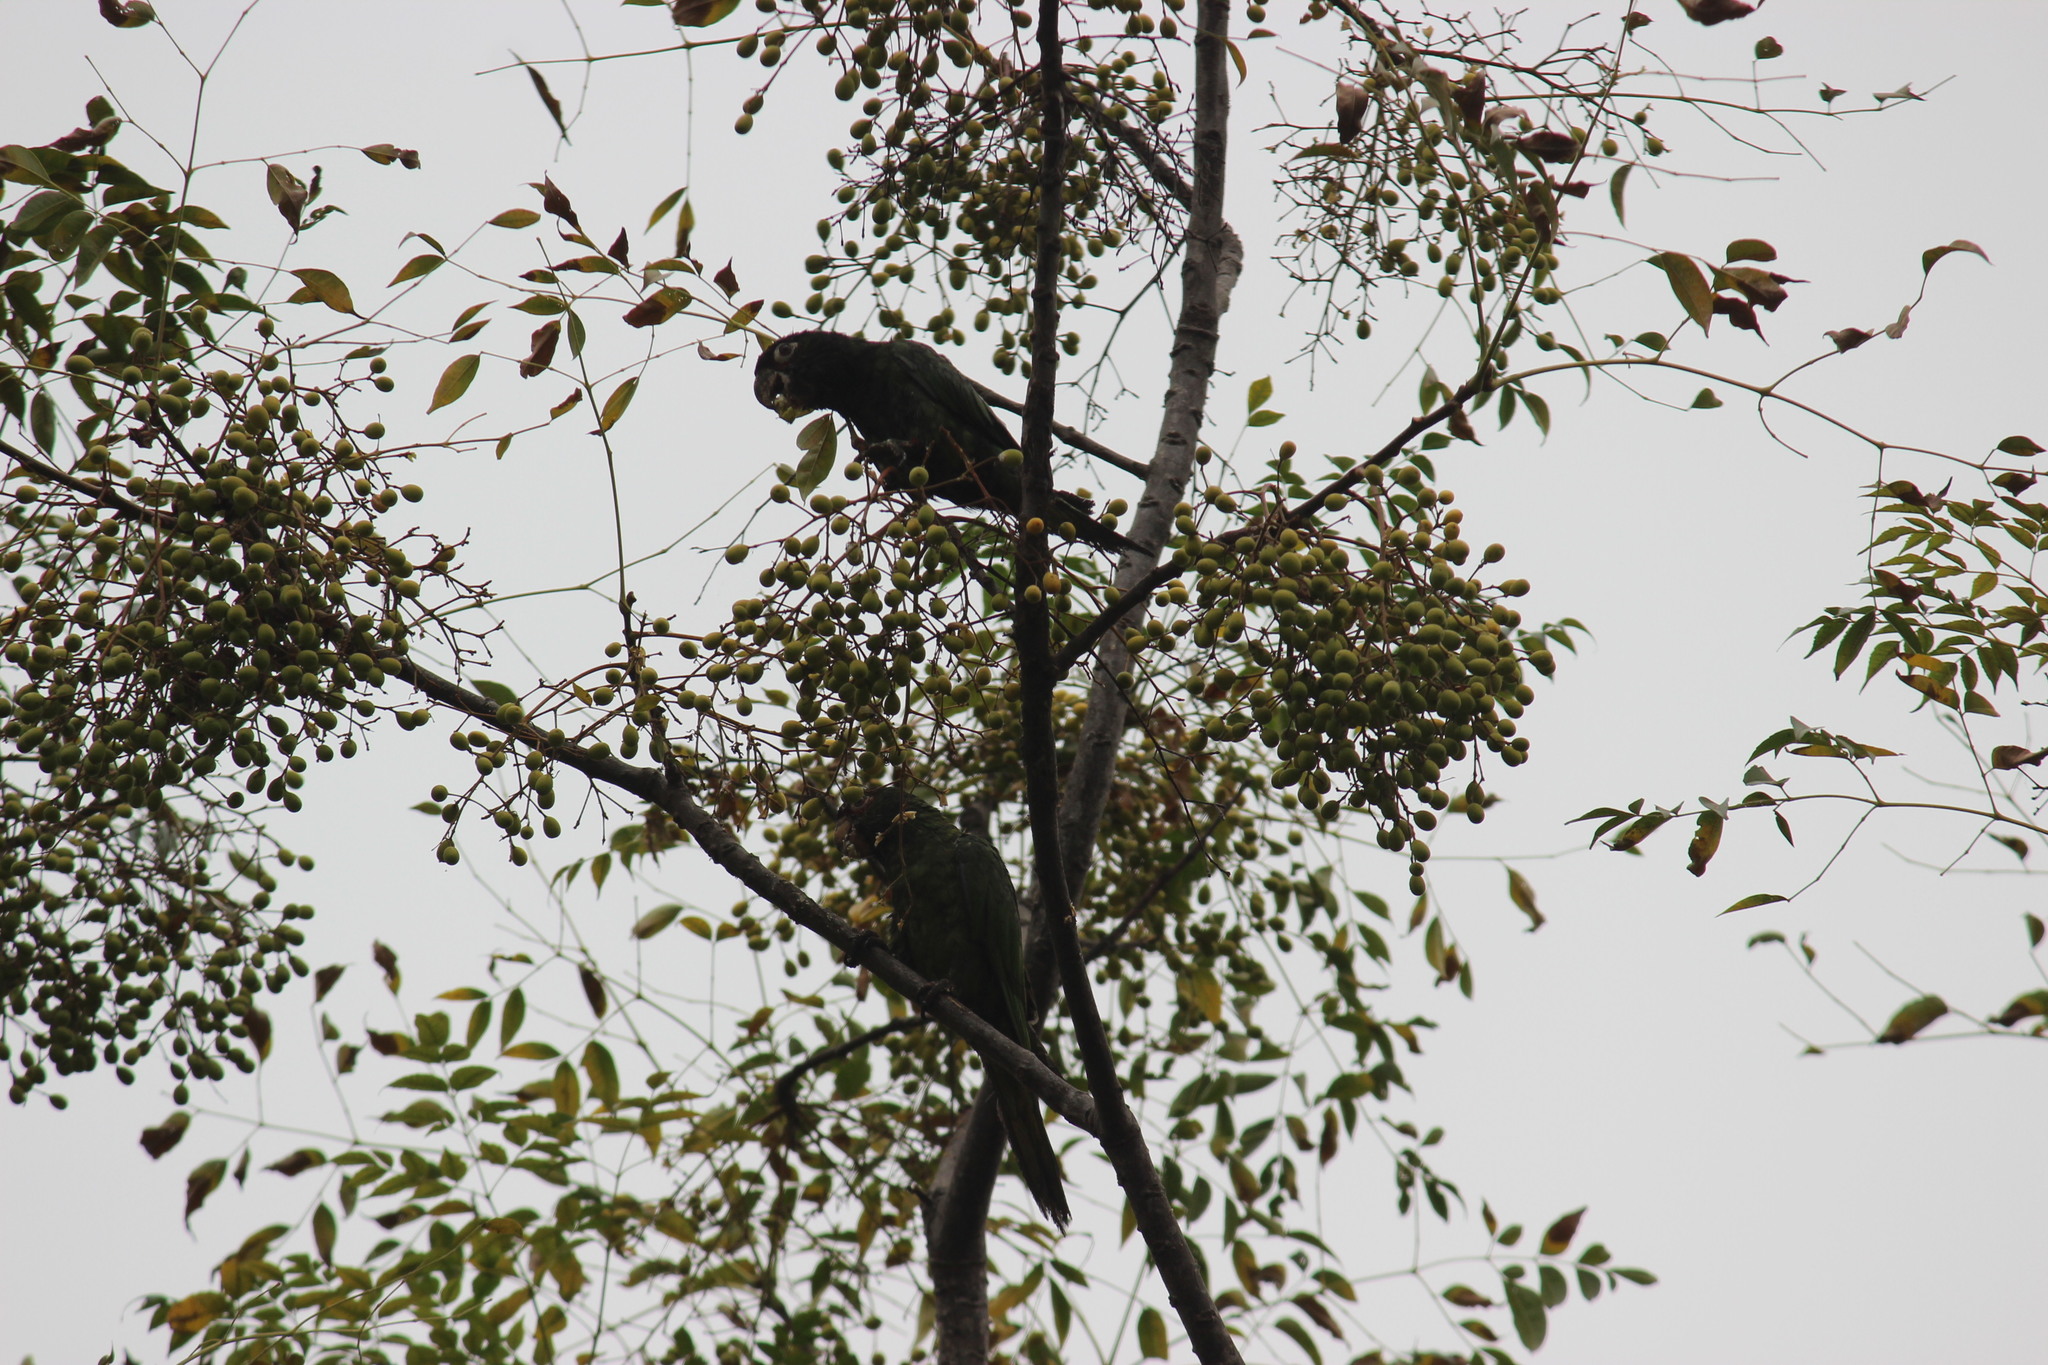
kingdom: Animalia
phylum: Chordata
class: Aves
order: Psittaciformes
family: Psittacidae
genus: Aratinga
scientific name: Aratinga wagleri
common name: Scarlet-fronted parakeet
